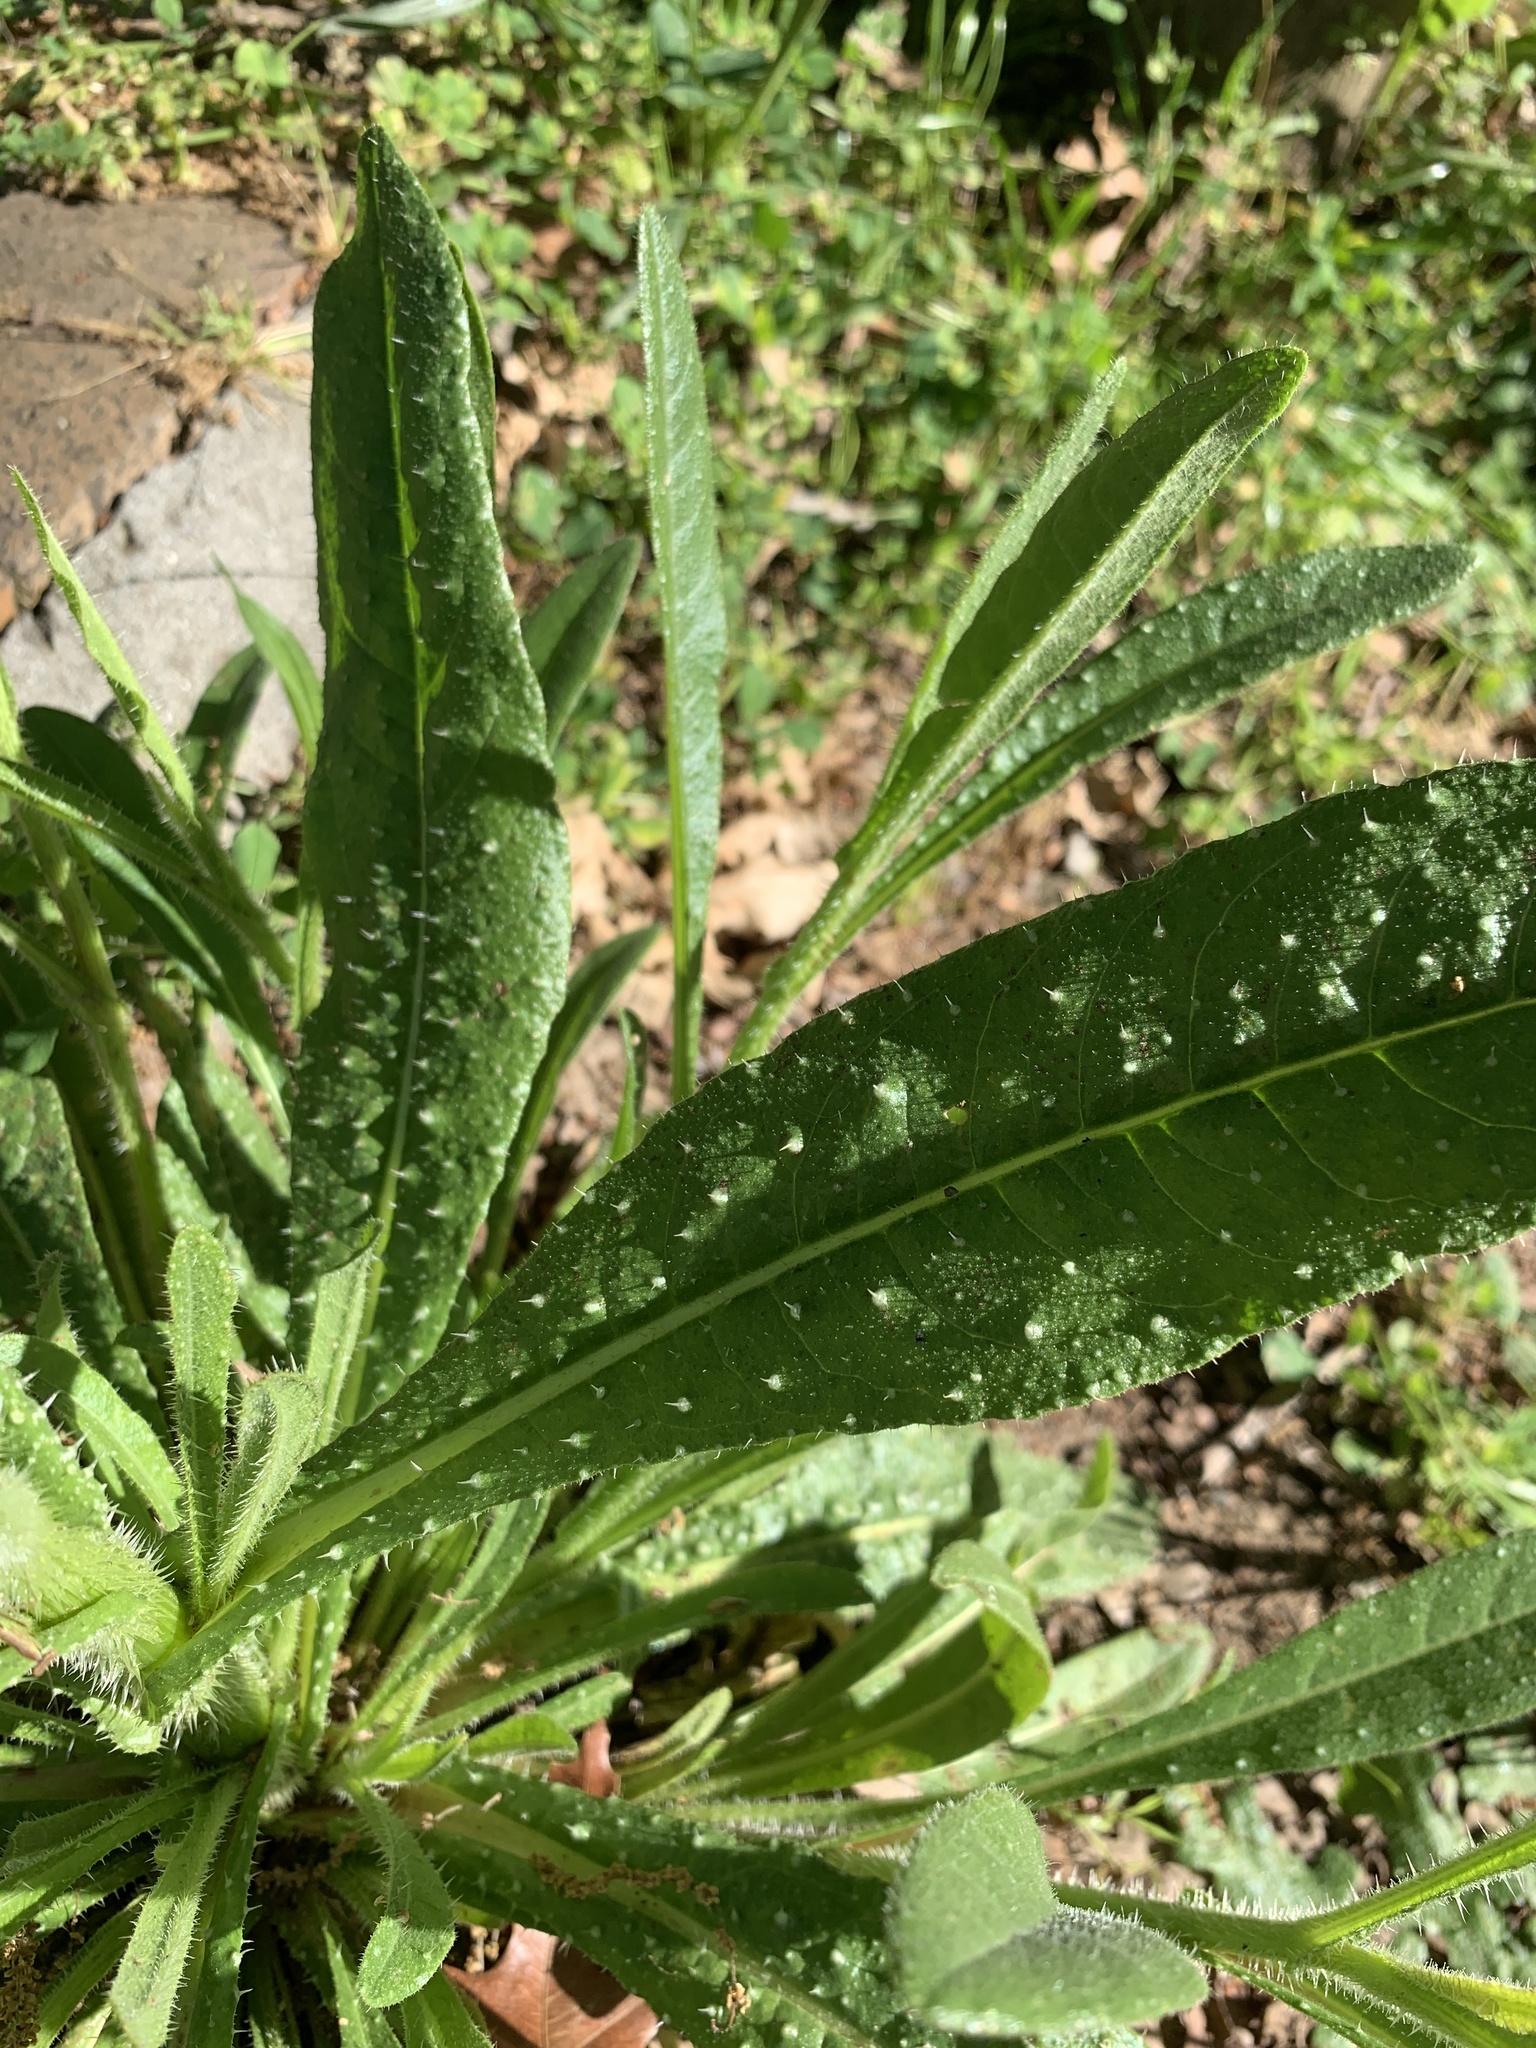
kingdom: Plantae
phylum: Tracheophyta
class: Magnoliopsida
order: Asterales
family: Asteraceae
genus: Helminthotheca
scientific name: Helminthotheca echioides
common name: Ox-tongue
